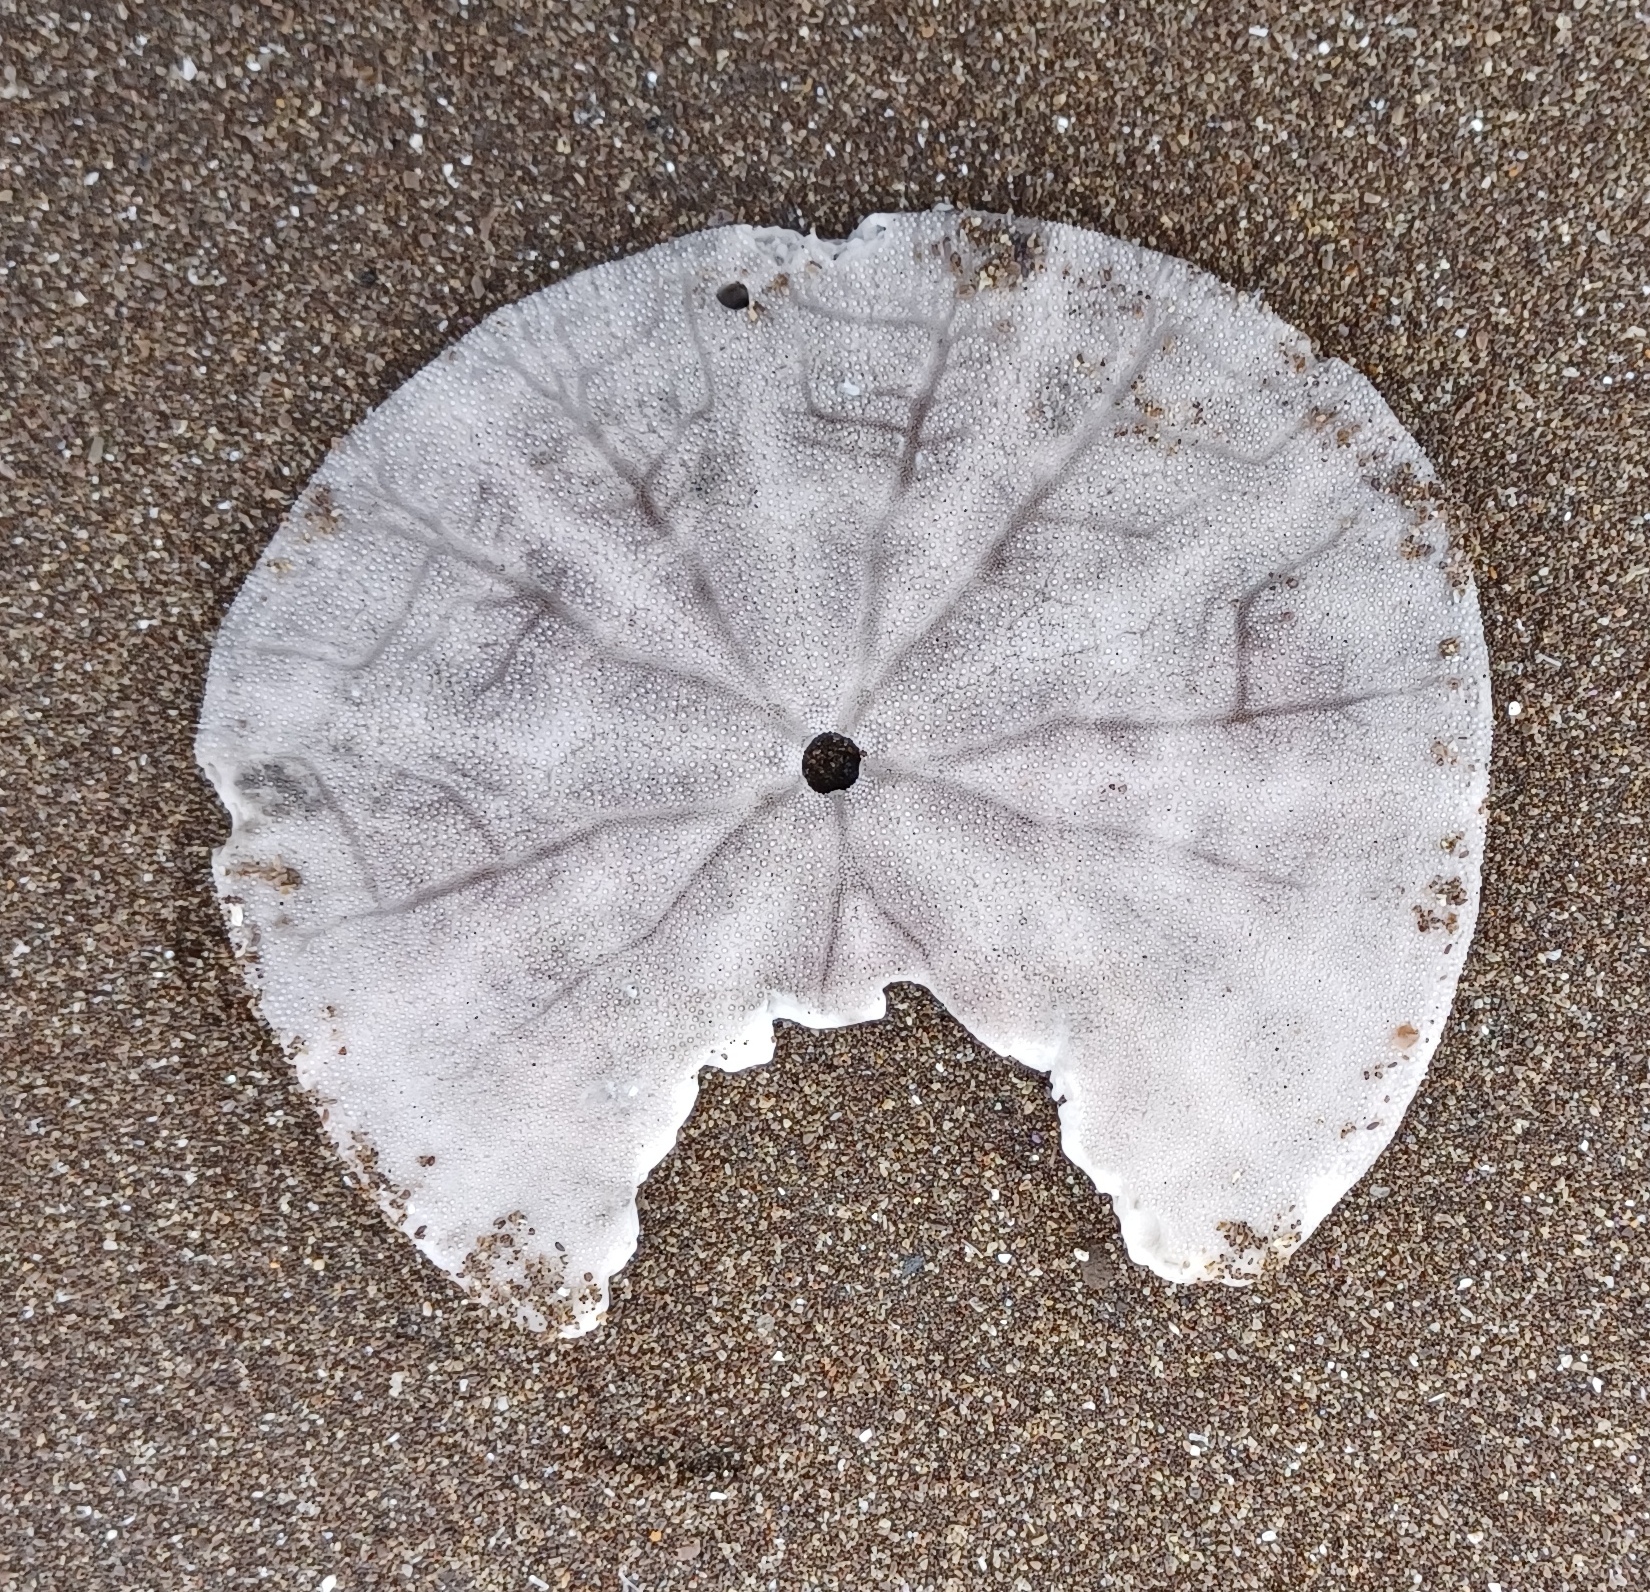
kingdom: Animalia
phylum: Echinodermata
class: Echinoidea
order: Echinolampadacea
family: Dendrasteridae
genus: Dendraster
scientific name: Dendraster excentricus
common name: Eccentric sand dollar sea urchin
